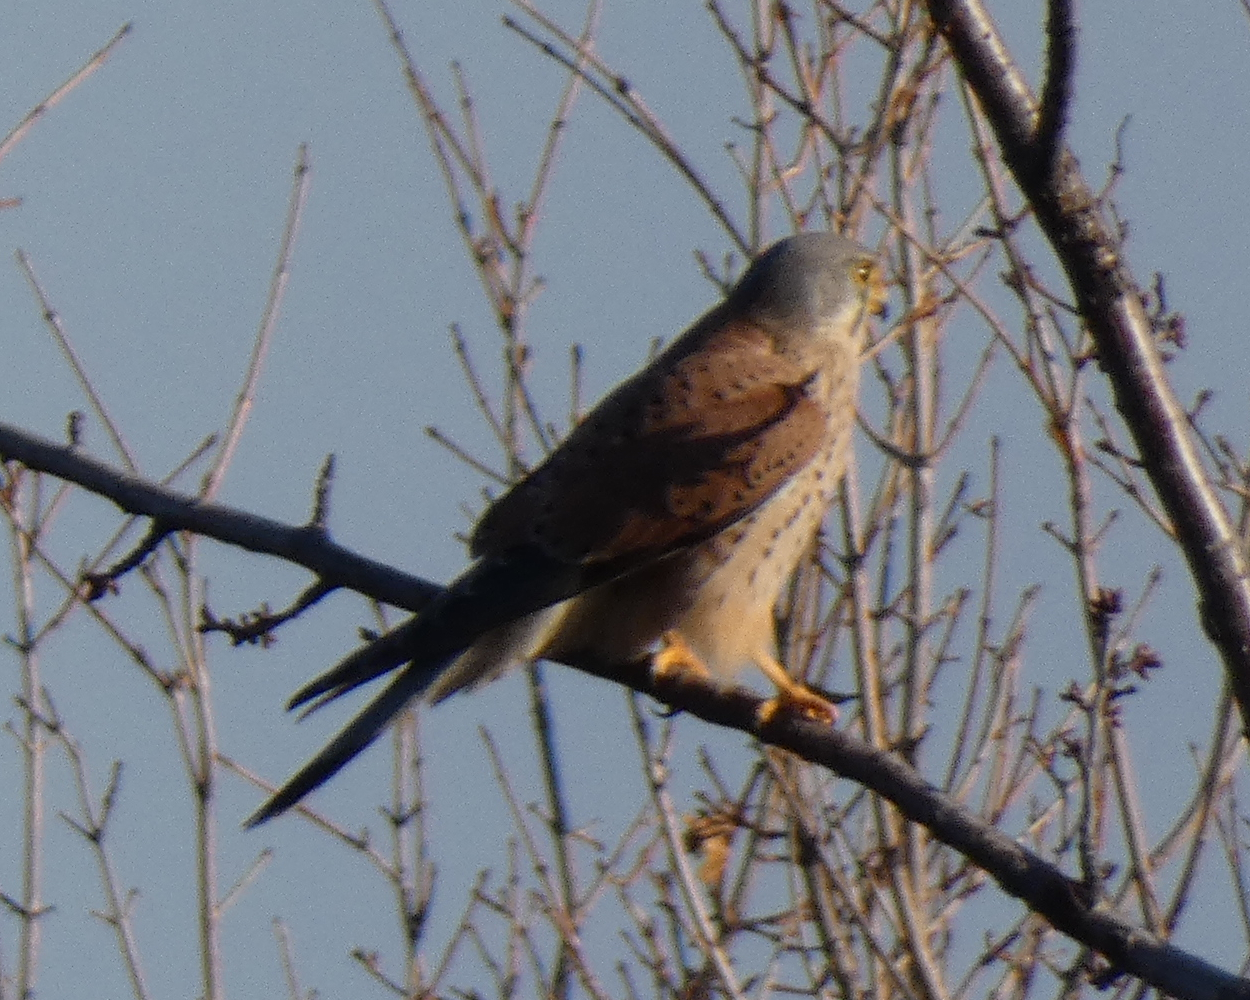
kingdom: Animalia
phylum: Chordata
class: Aves
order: Falconiformes
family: Falconidae
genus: Falco
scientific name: Falco tinnunculus
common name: Common kestrel
